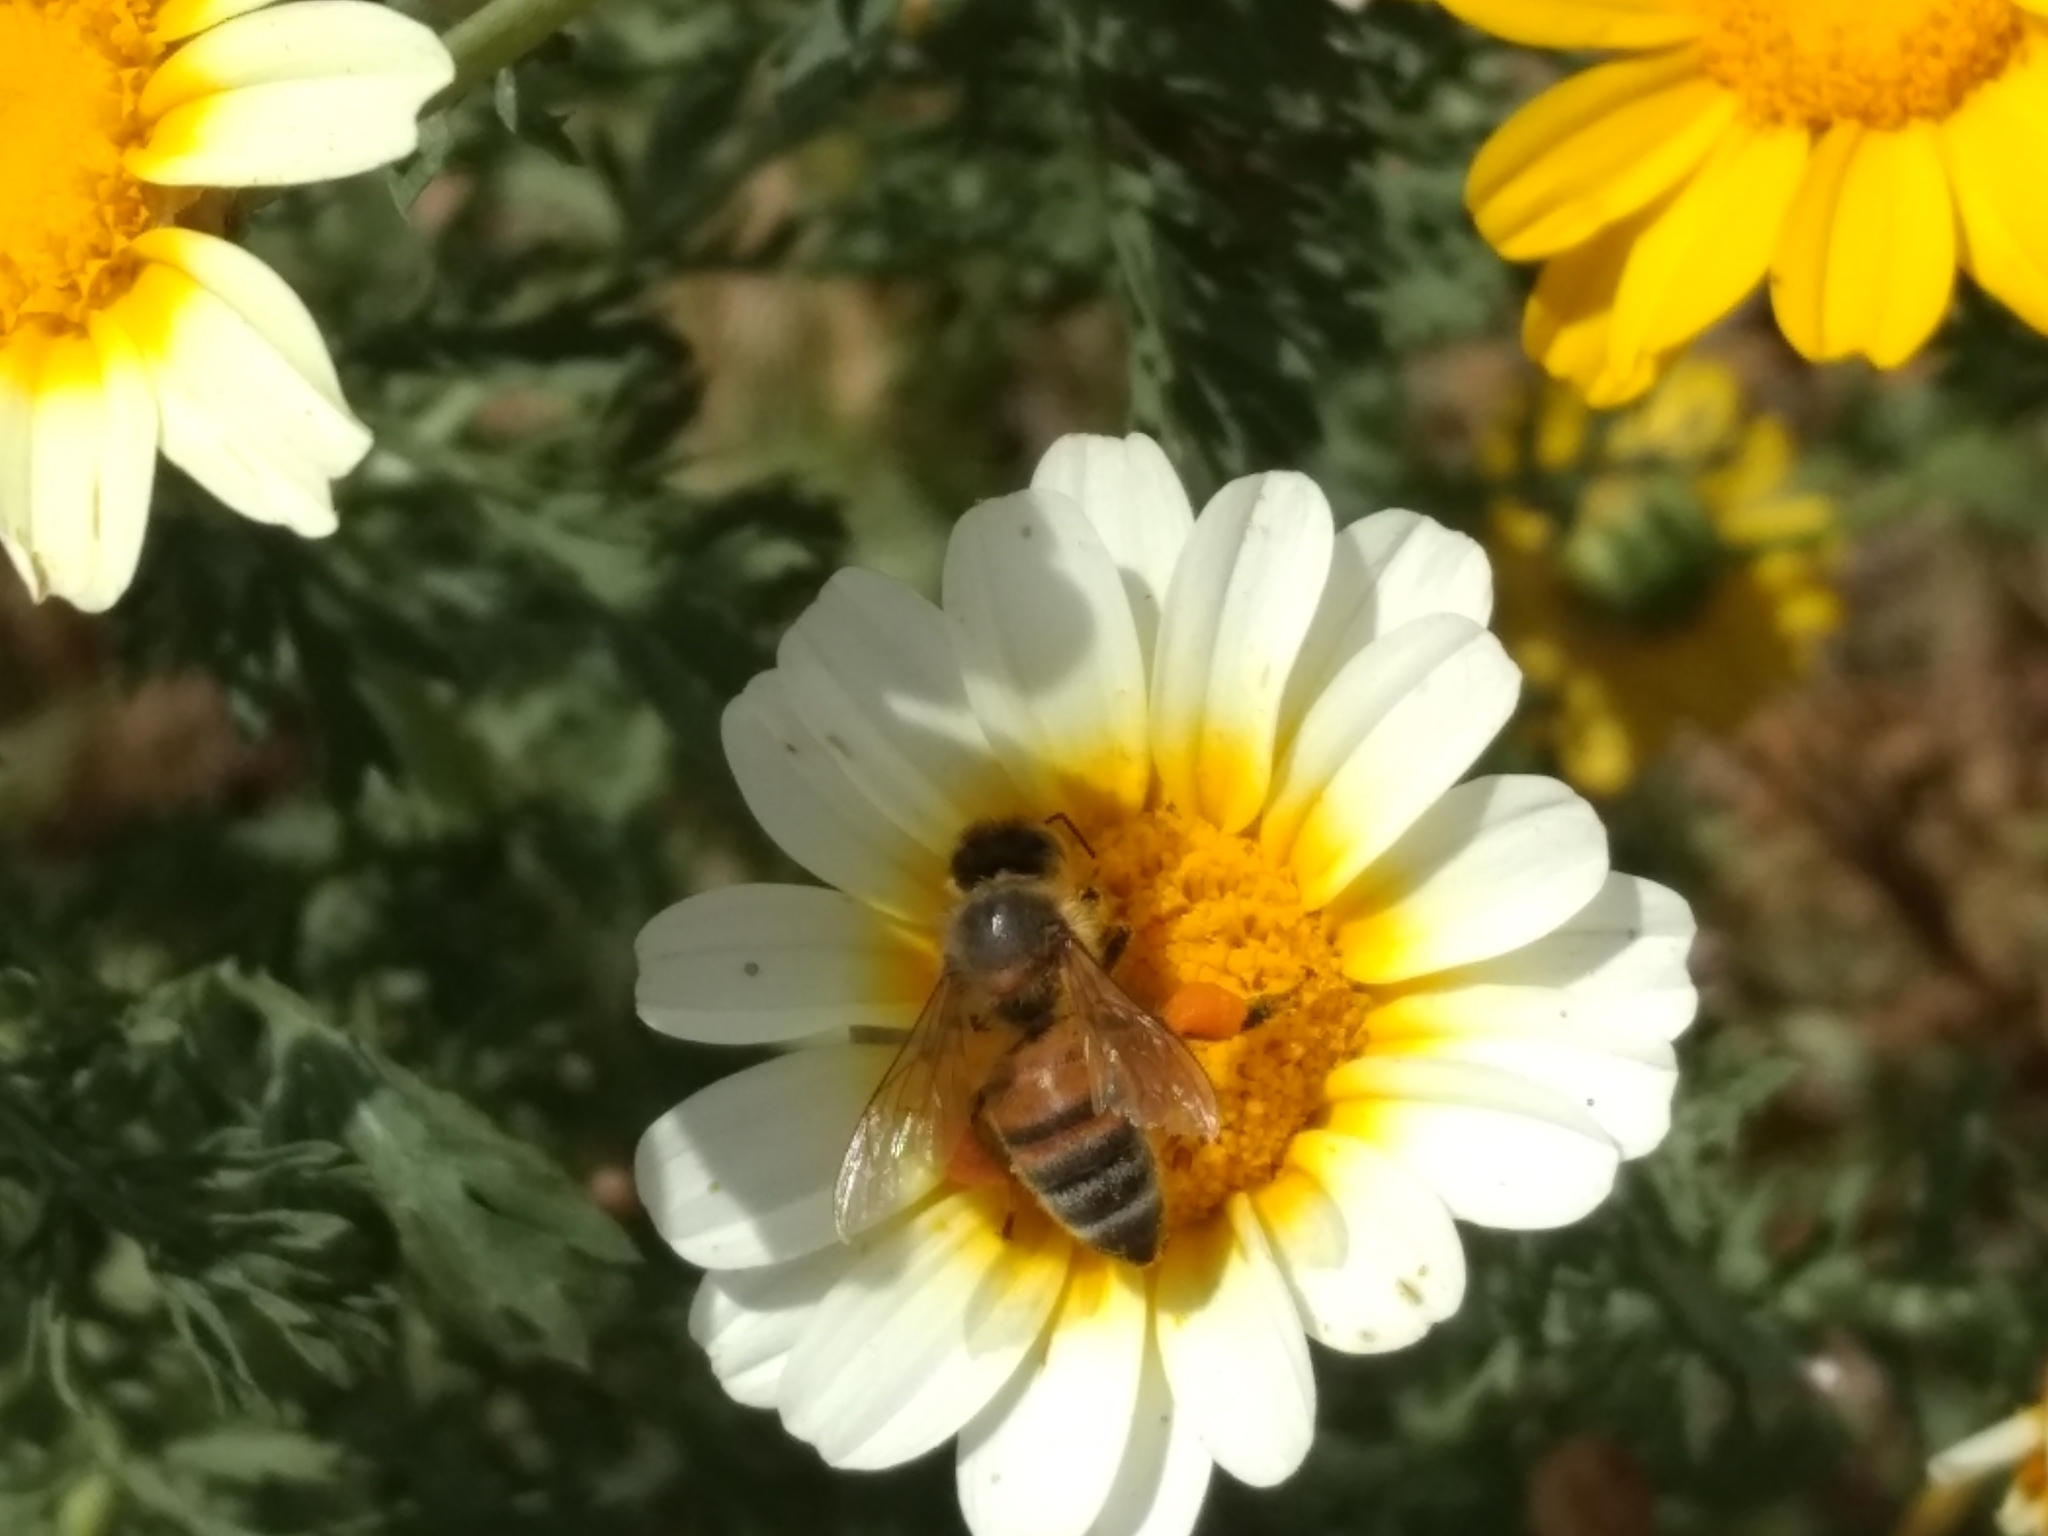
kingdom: Animalia
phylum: Arthropoda
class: Insecta
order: Hymenoptera
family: Apidae
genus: Apis
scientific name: Apis mellifera
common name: Honey bee
